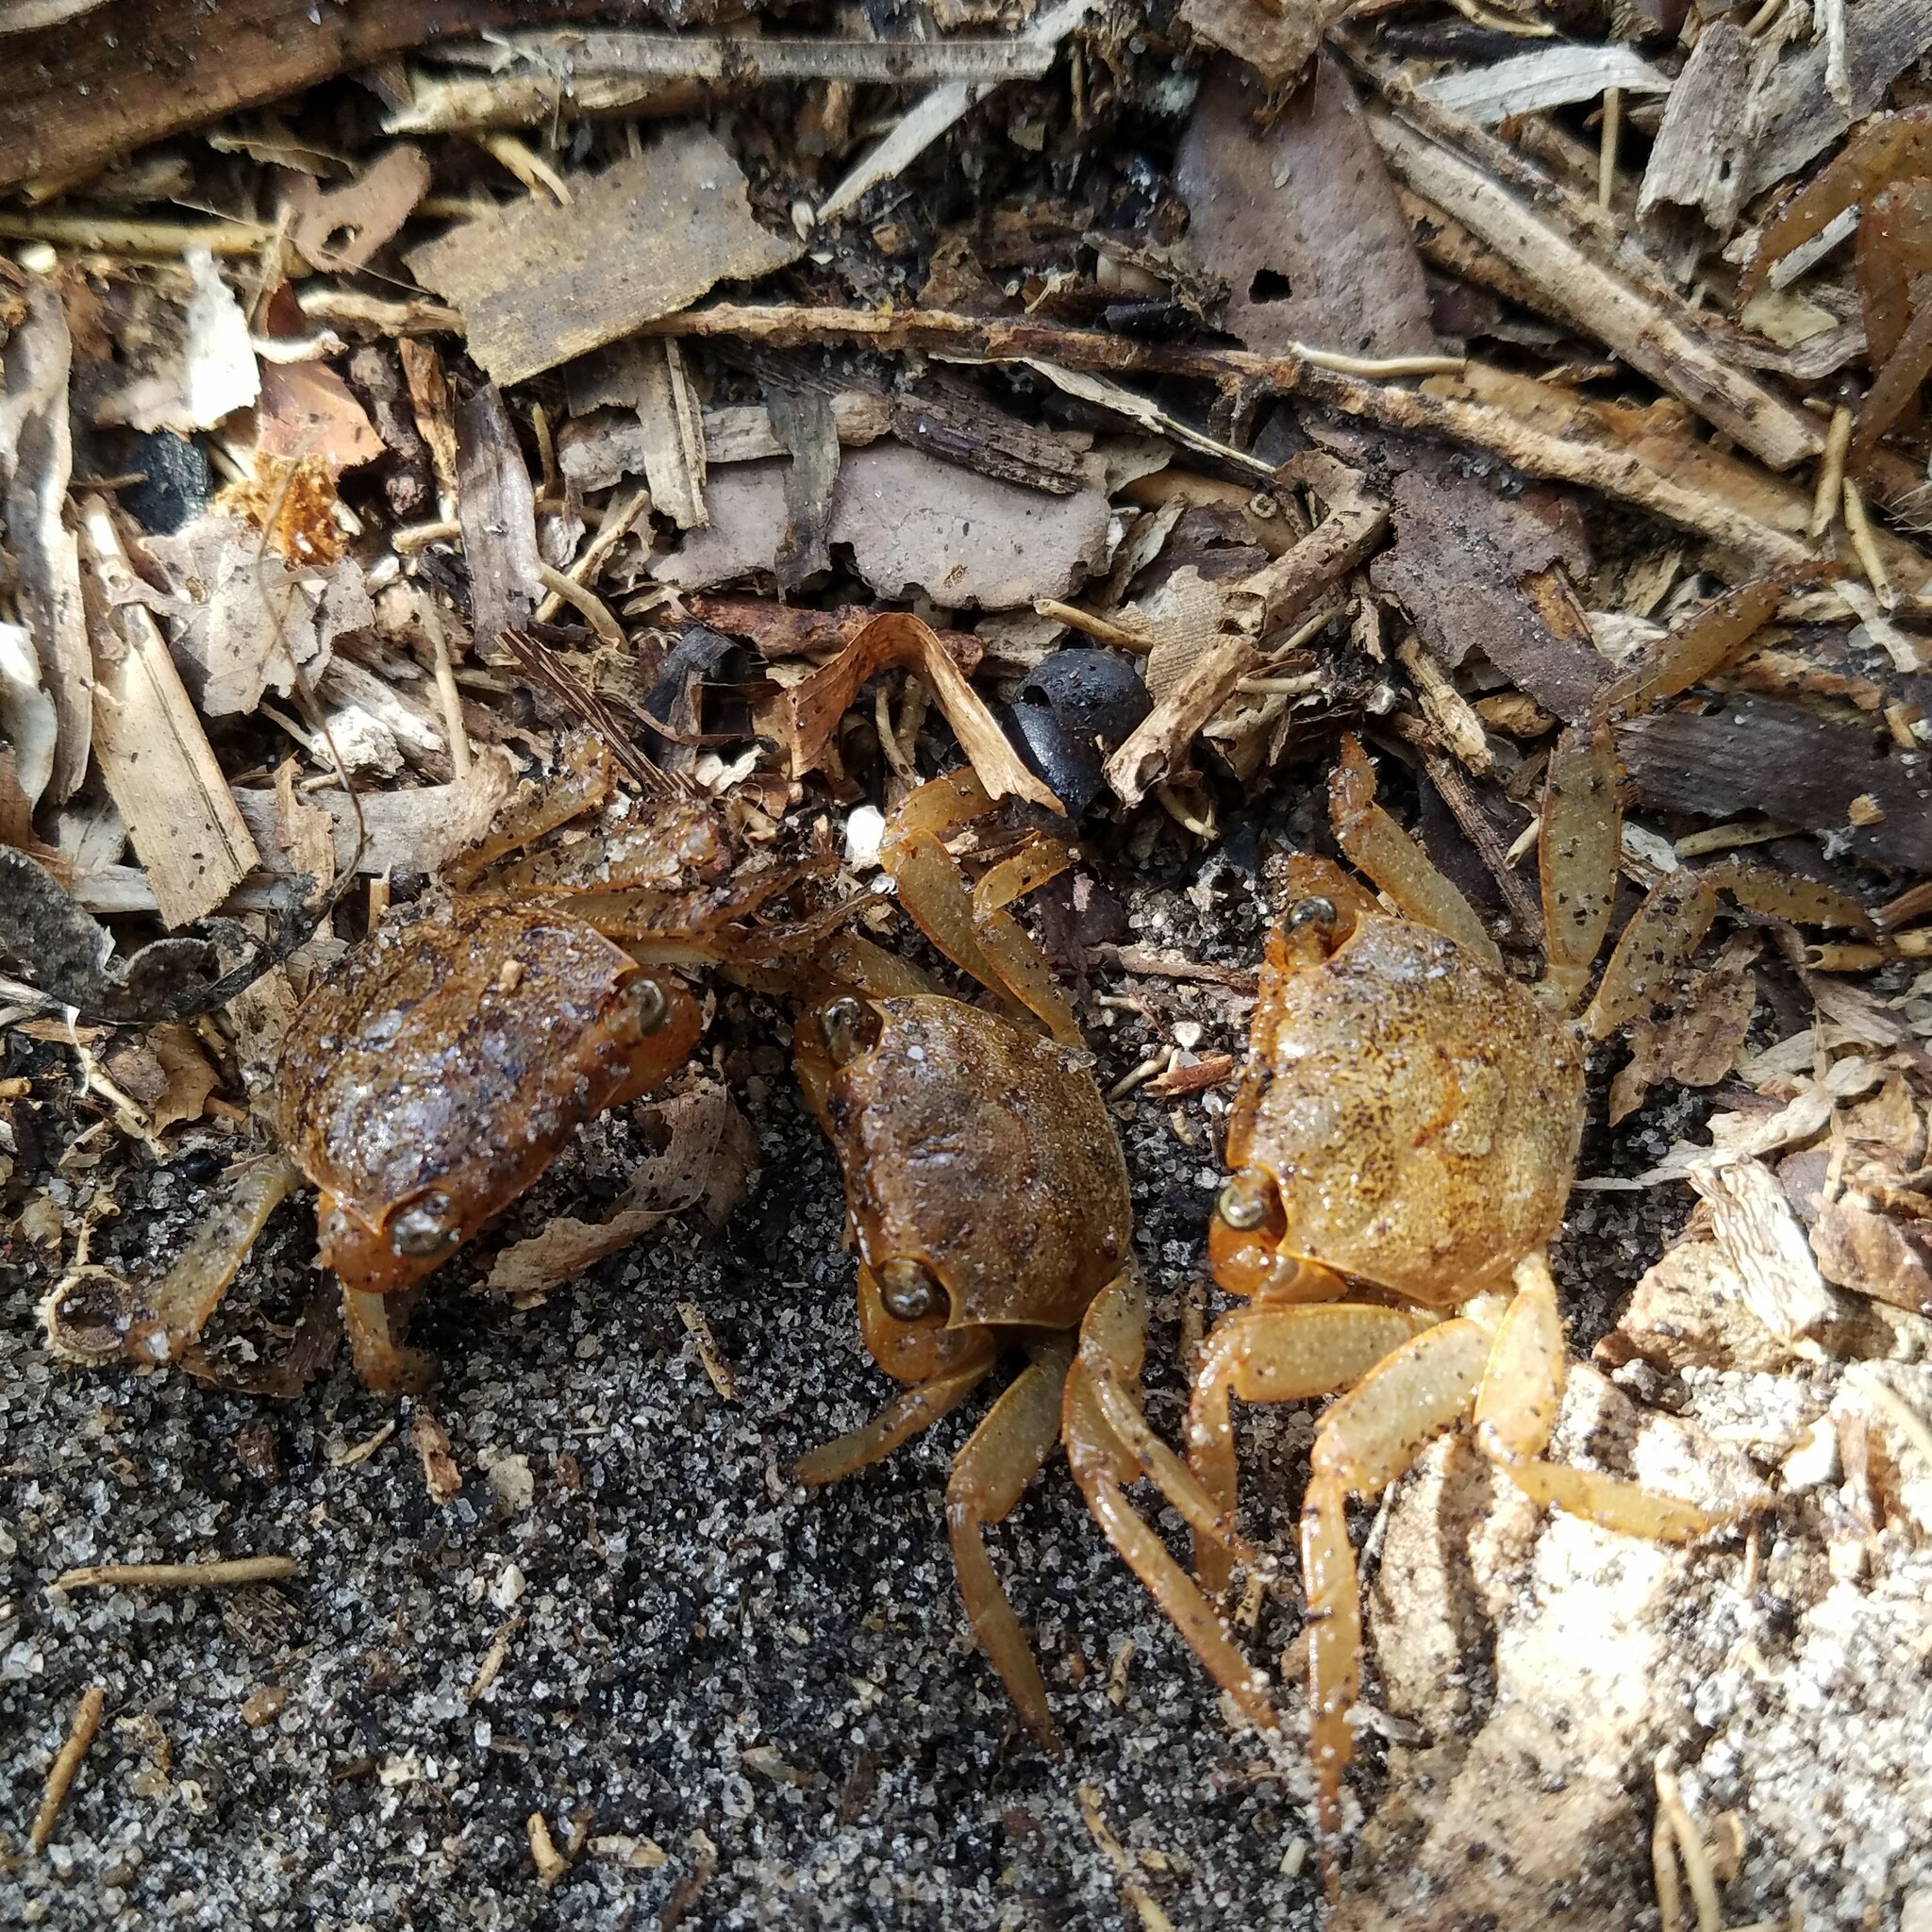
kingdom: Animalia
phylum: Arthropoda
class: Malacostraca
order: Decapoda
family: Sesarmidae
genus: Armases
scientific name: Armases cinereum
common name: Squareback marsh crab
